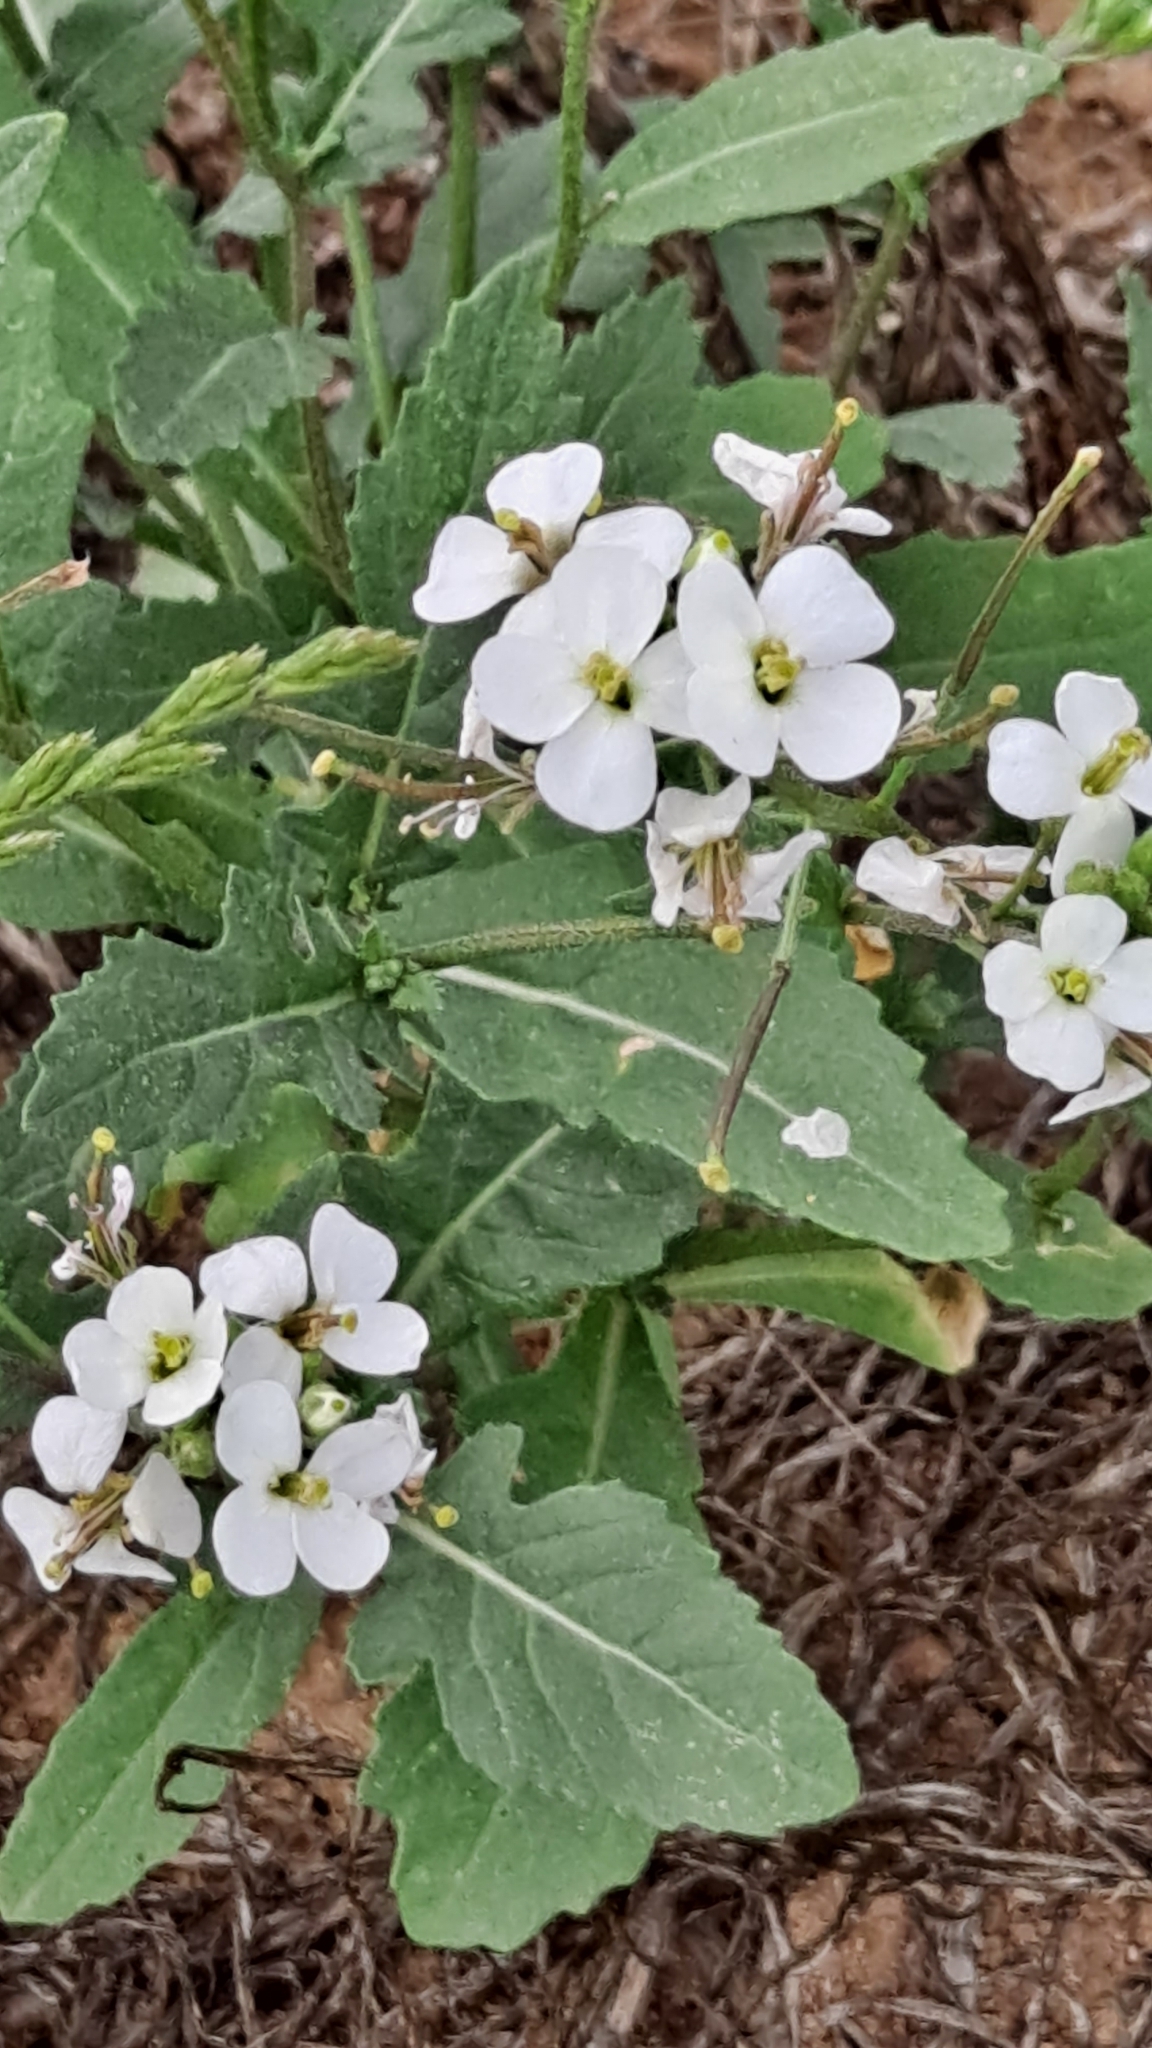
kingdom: Plantae
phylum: Tracheophyta
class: Magnoliopsida
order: Brassicales
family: Brassicaceae
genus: Diplotaxis
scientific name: Diplotaxis erucoides
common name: White rocket
